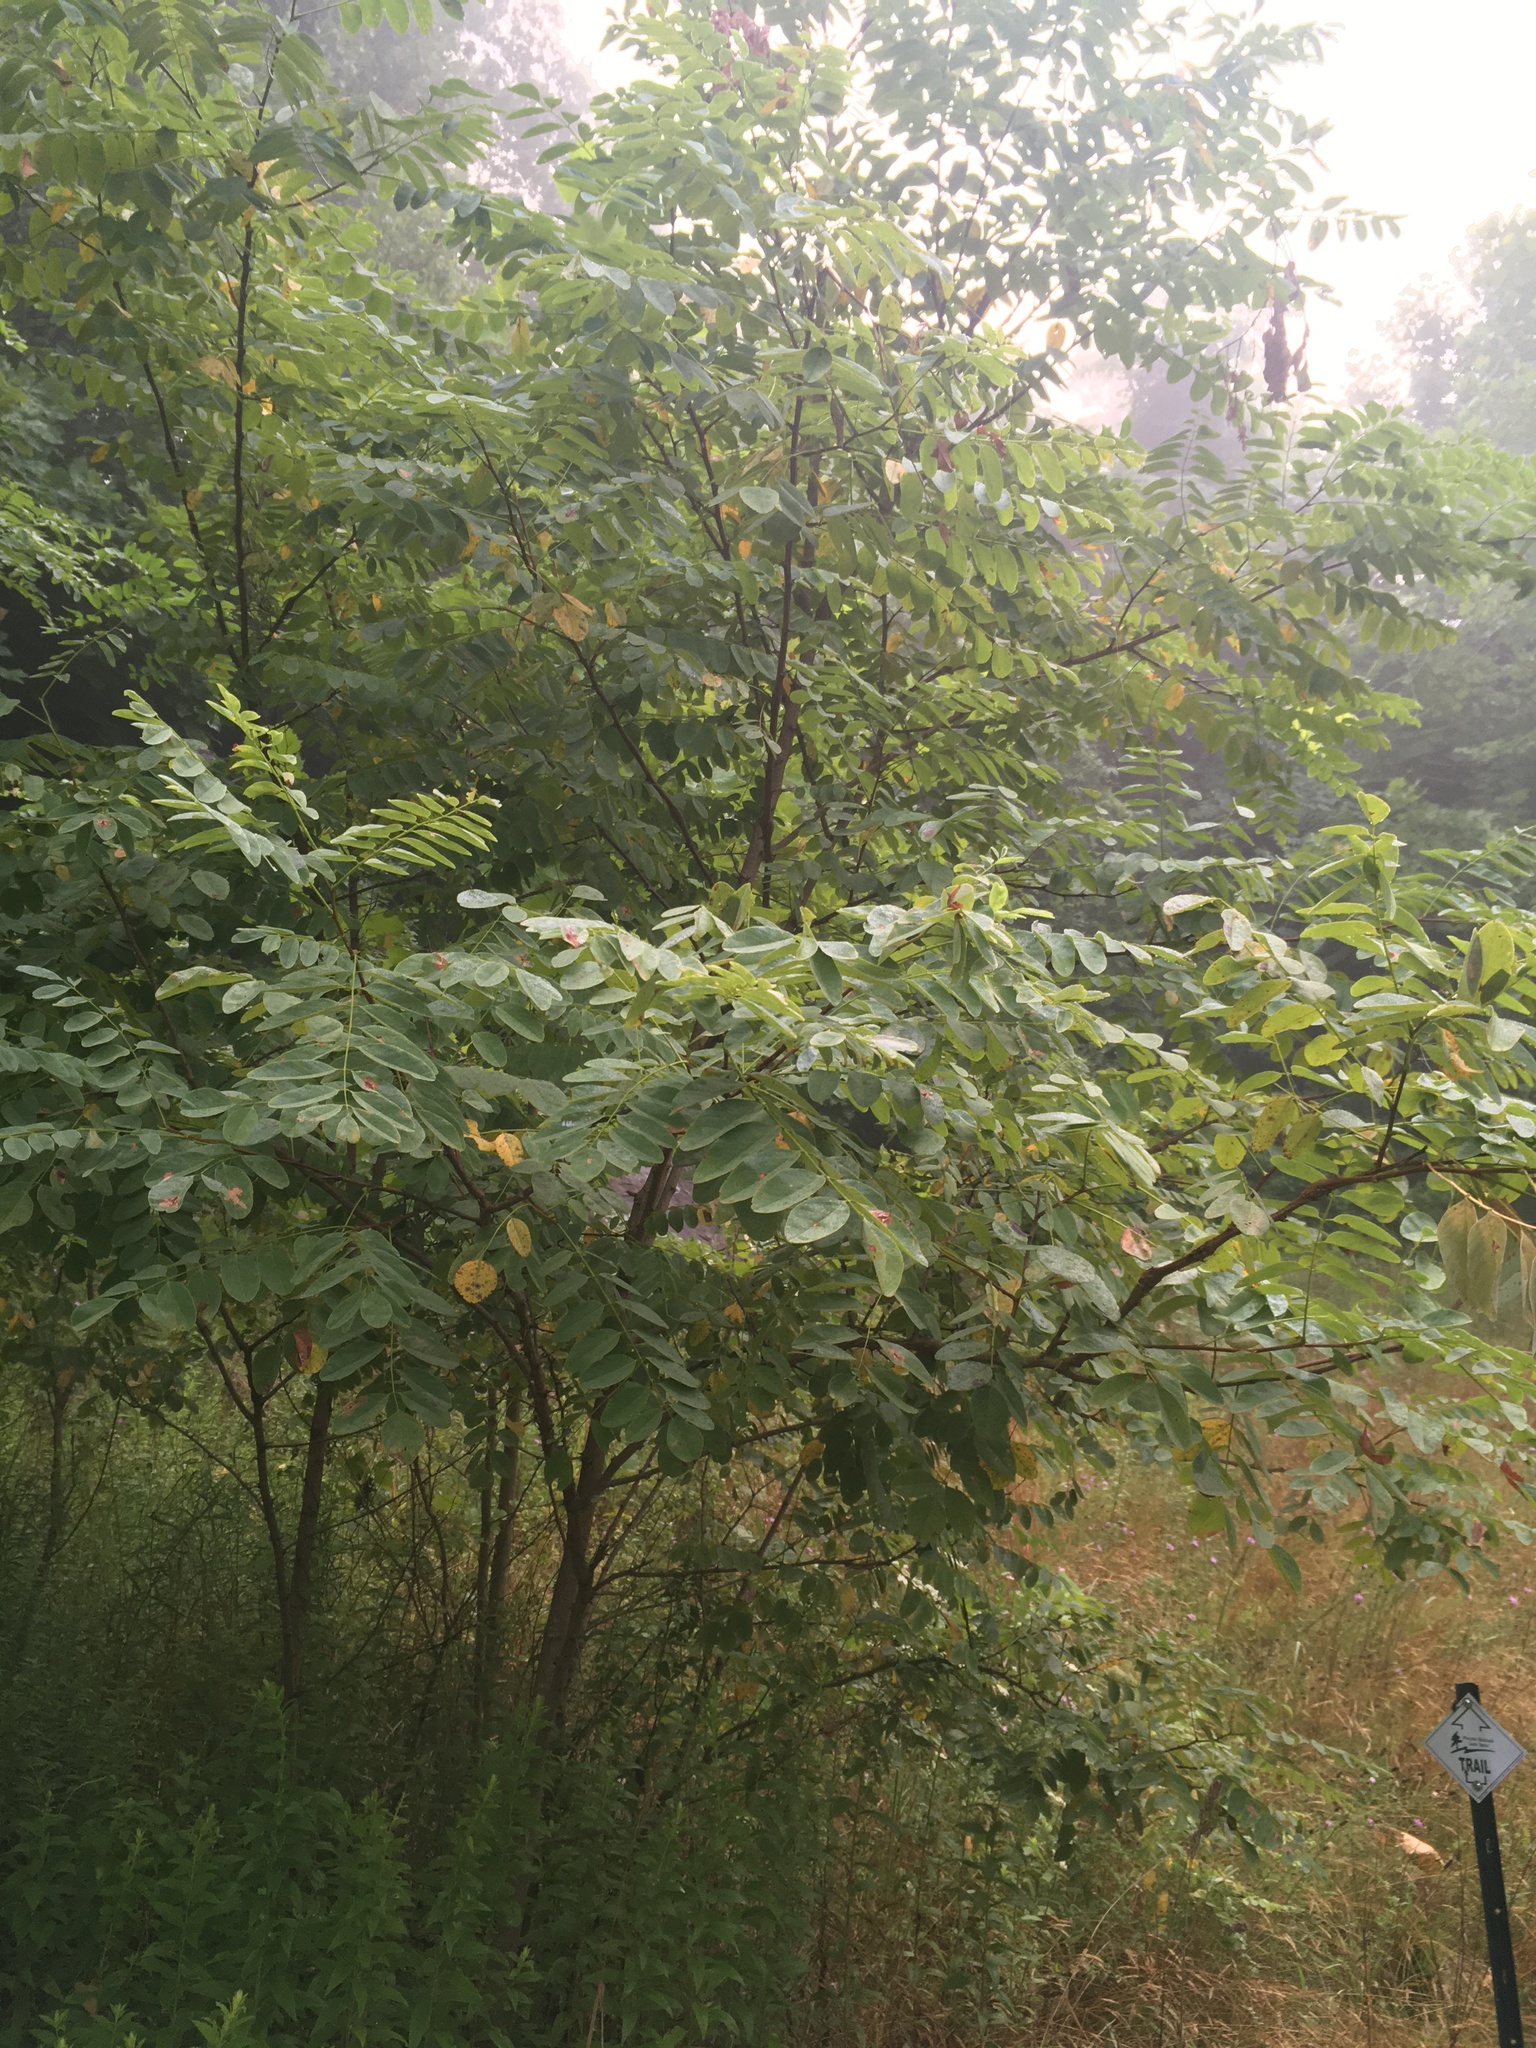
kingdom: Plantae
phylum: Tracheophyta
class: Magnoliopsida
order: Fabales
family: Fabaceae
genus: Robinia
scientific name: Robinia pseudoacacia
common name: Black locust
